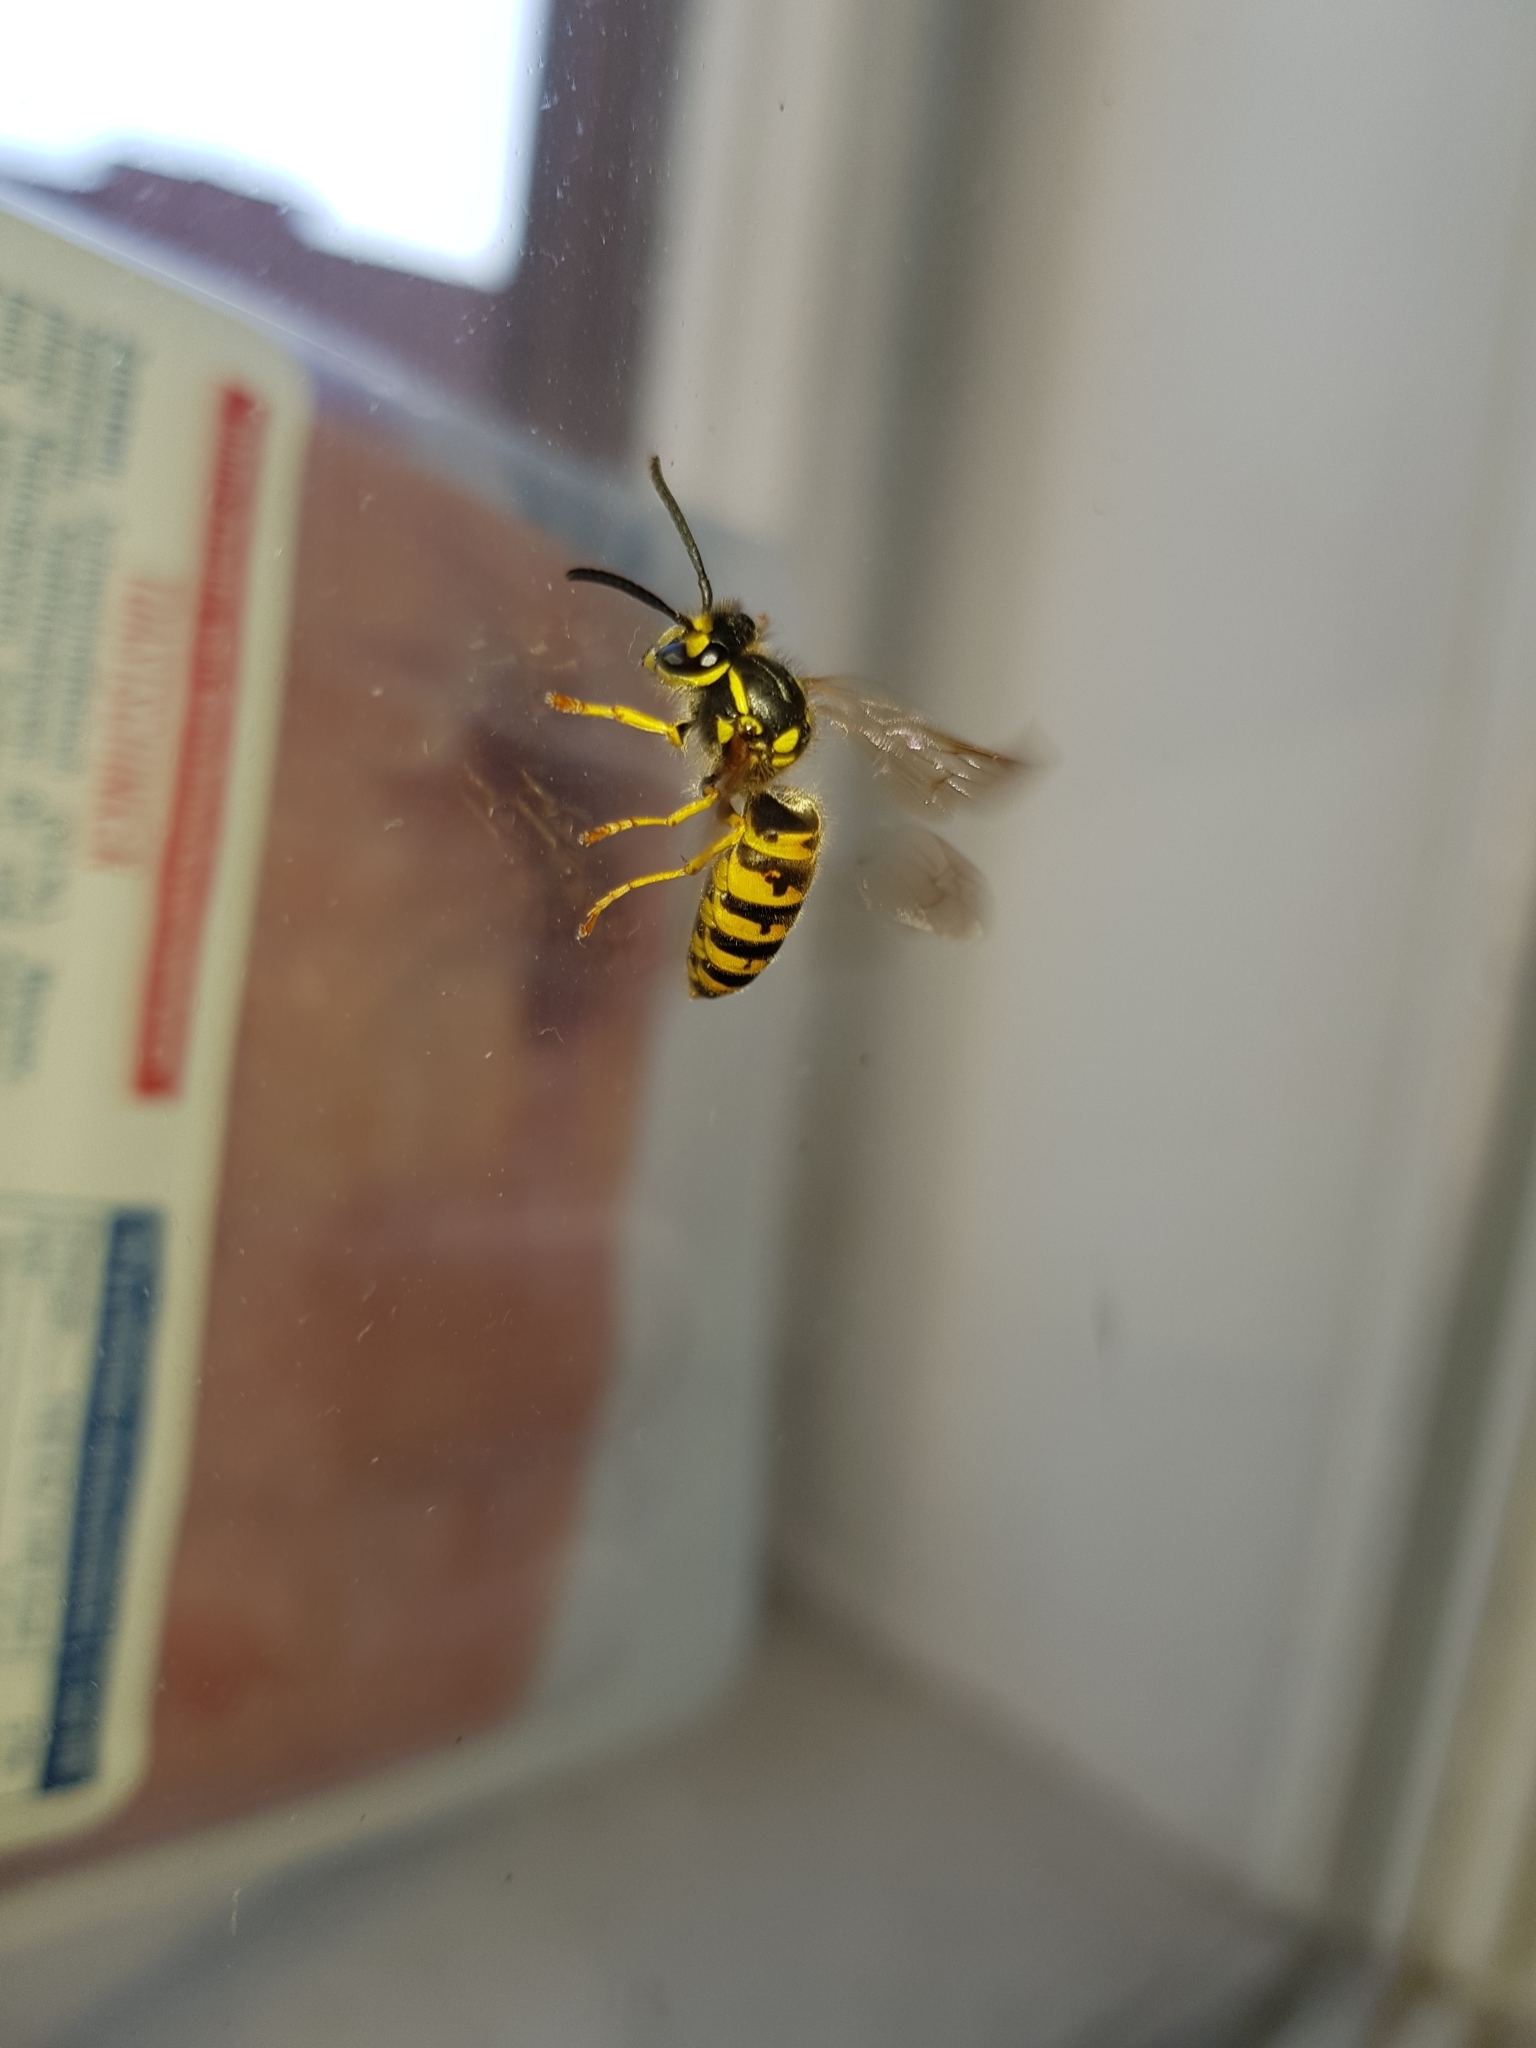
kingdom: Animalia
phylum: Arthropoda
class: Insecta
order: Hymenoptera
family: Vespidae
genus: Vespula
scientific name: Vespula germanica
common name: German wasp
